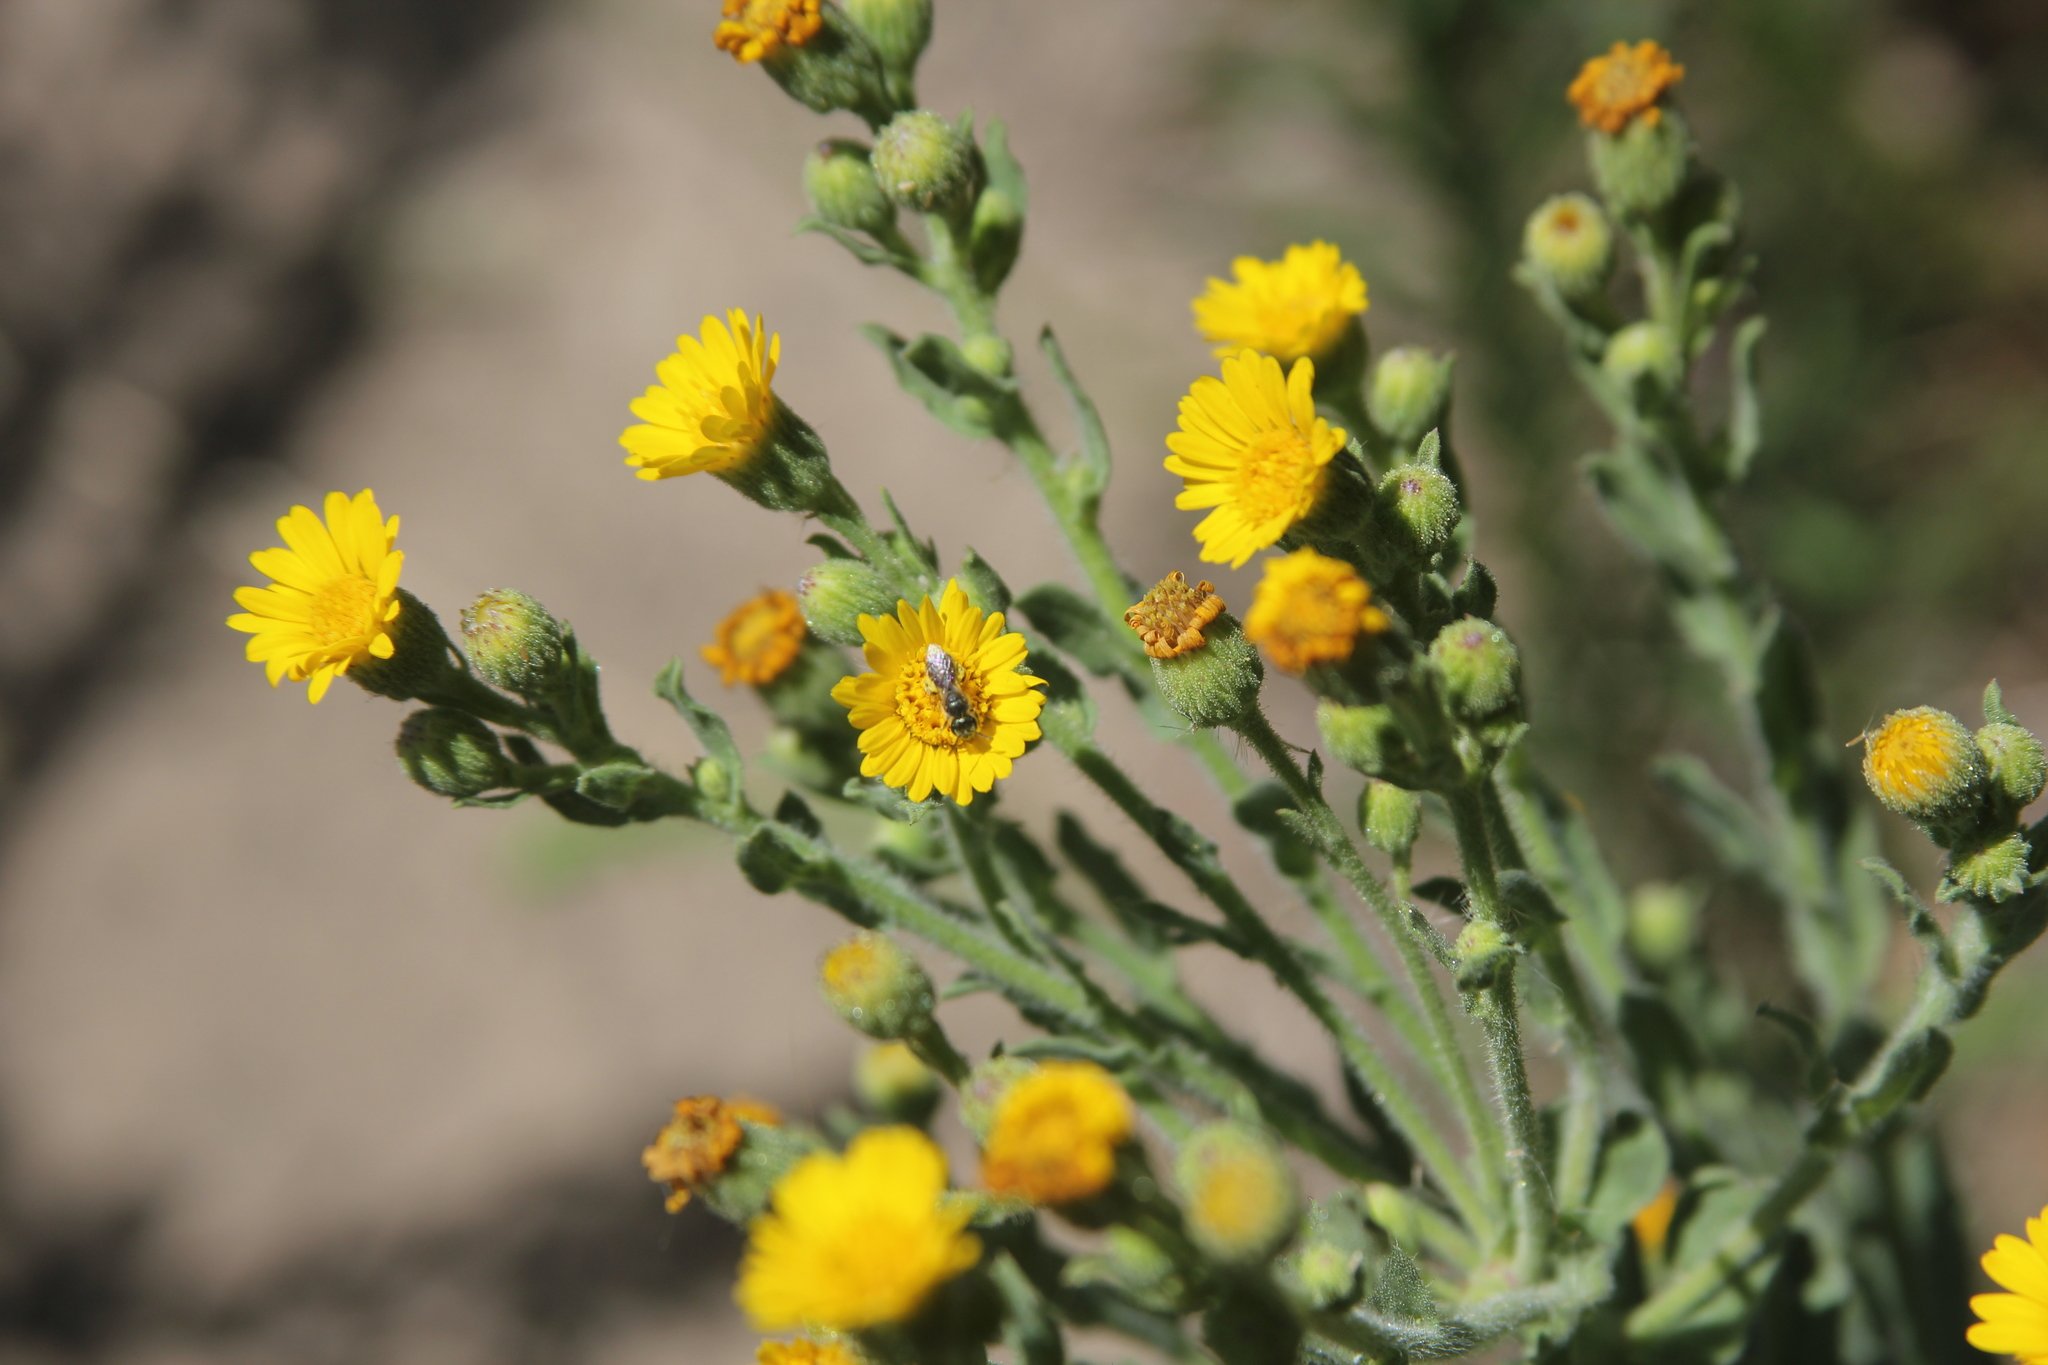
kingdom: Animalia
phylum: Arthropoda
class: Insecta
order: Hymenoptera
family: Halictidae
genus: Halictus
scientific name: Halictus tripartitus
